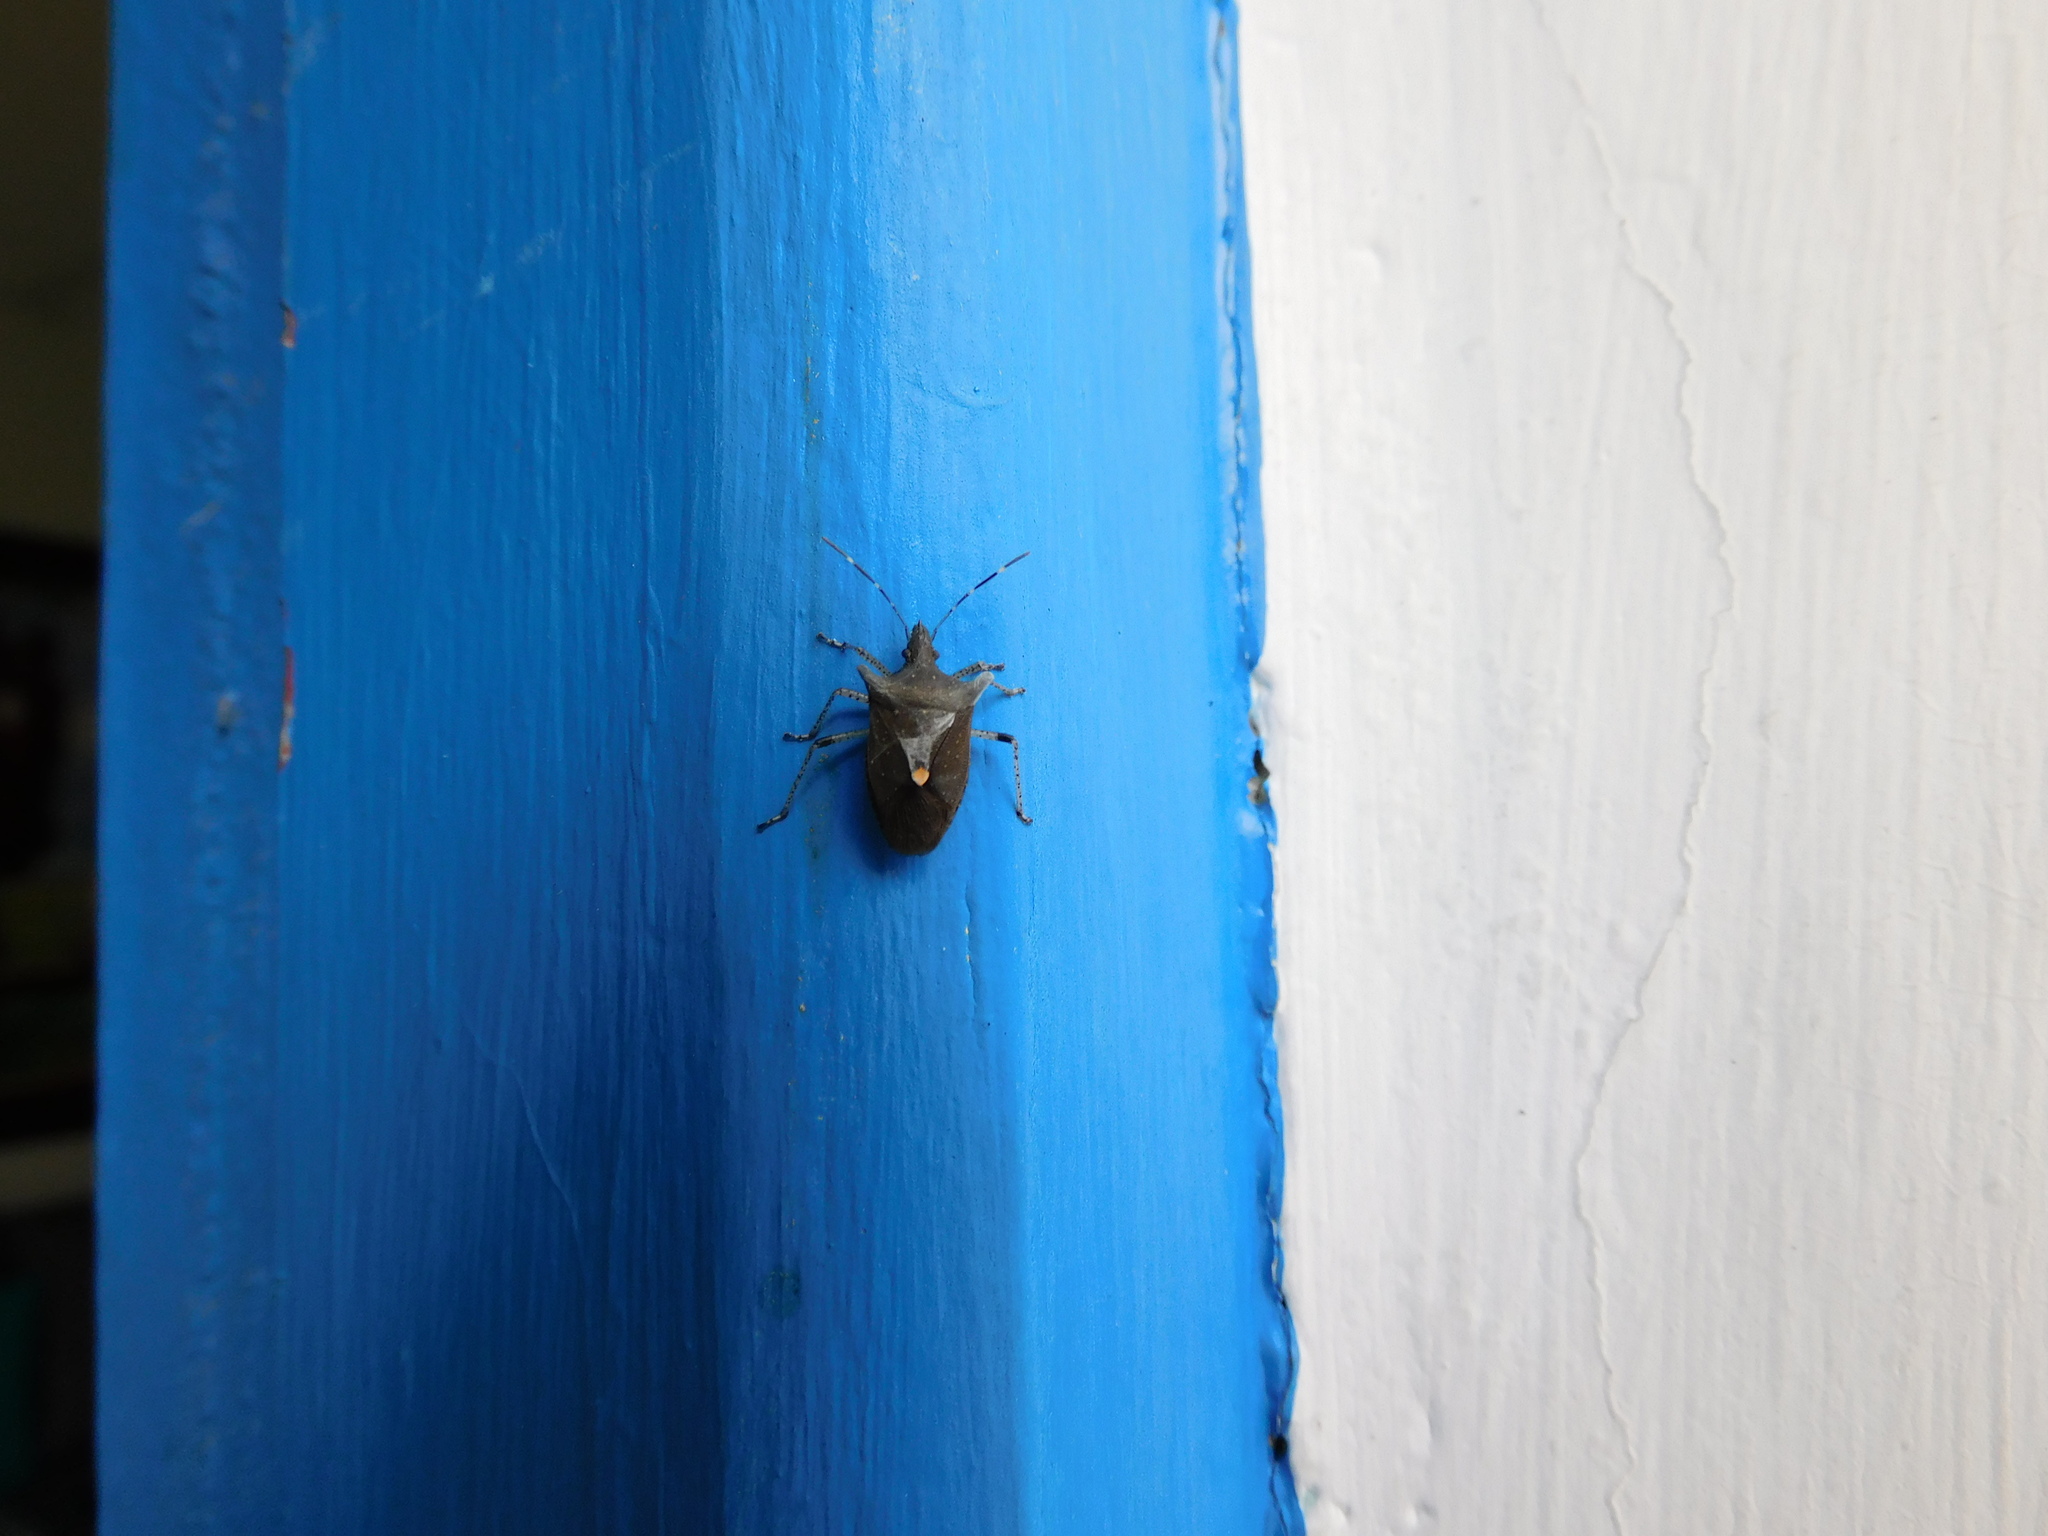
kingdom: Animalia
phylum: Arthropoda
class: Insecta
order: Hemiptera
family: Pentatomidae
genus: Proxys
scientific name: Proxys
